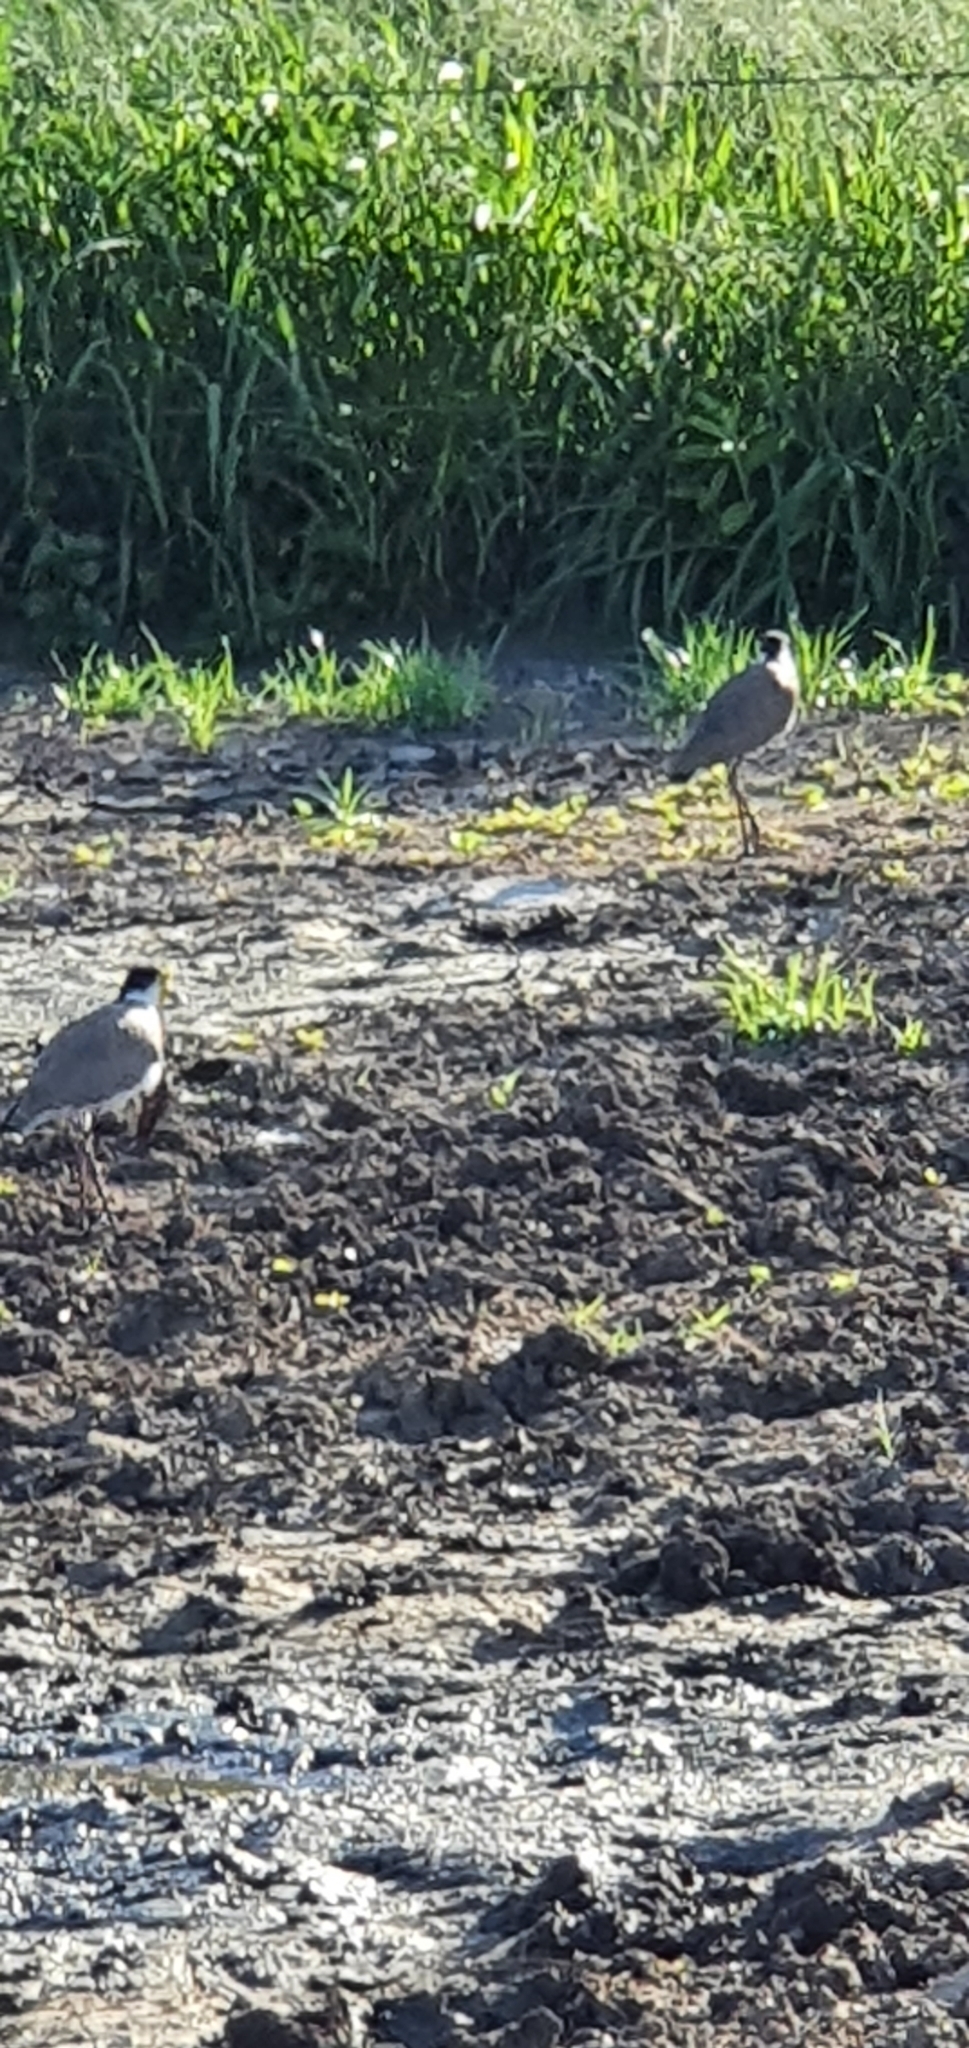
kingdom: Animalia
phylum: Chordata
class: Aves
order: Charadriiformes
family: Charadriidae
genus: Vanellus
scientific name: Vanellus miles
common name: Masked lapwing
